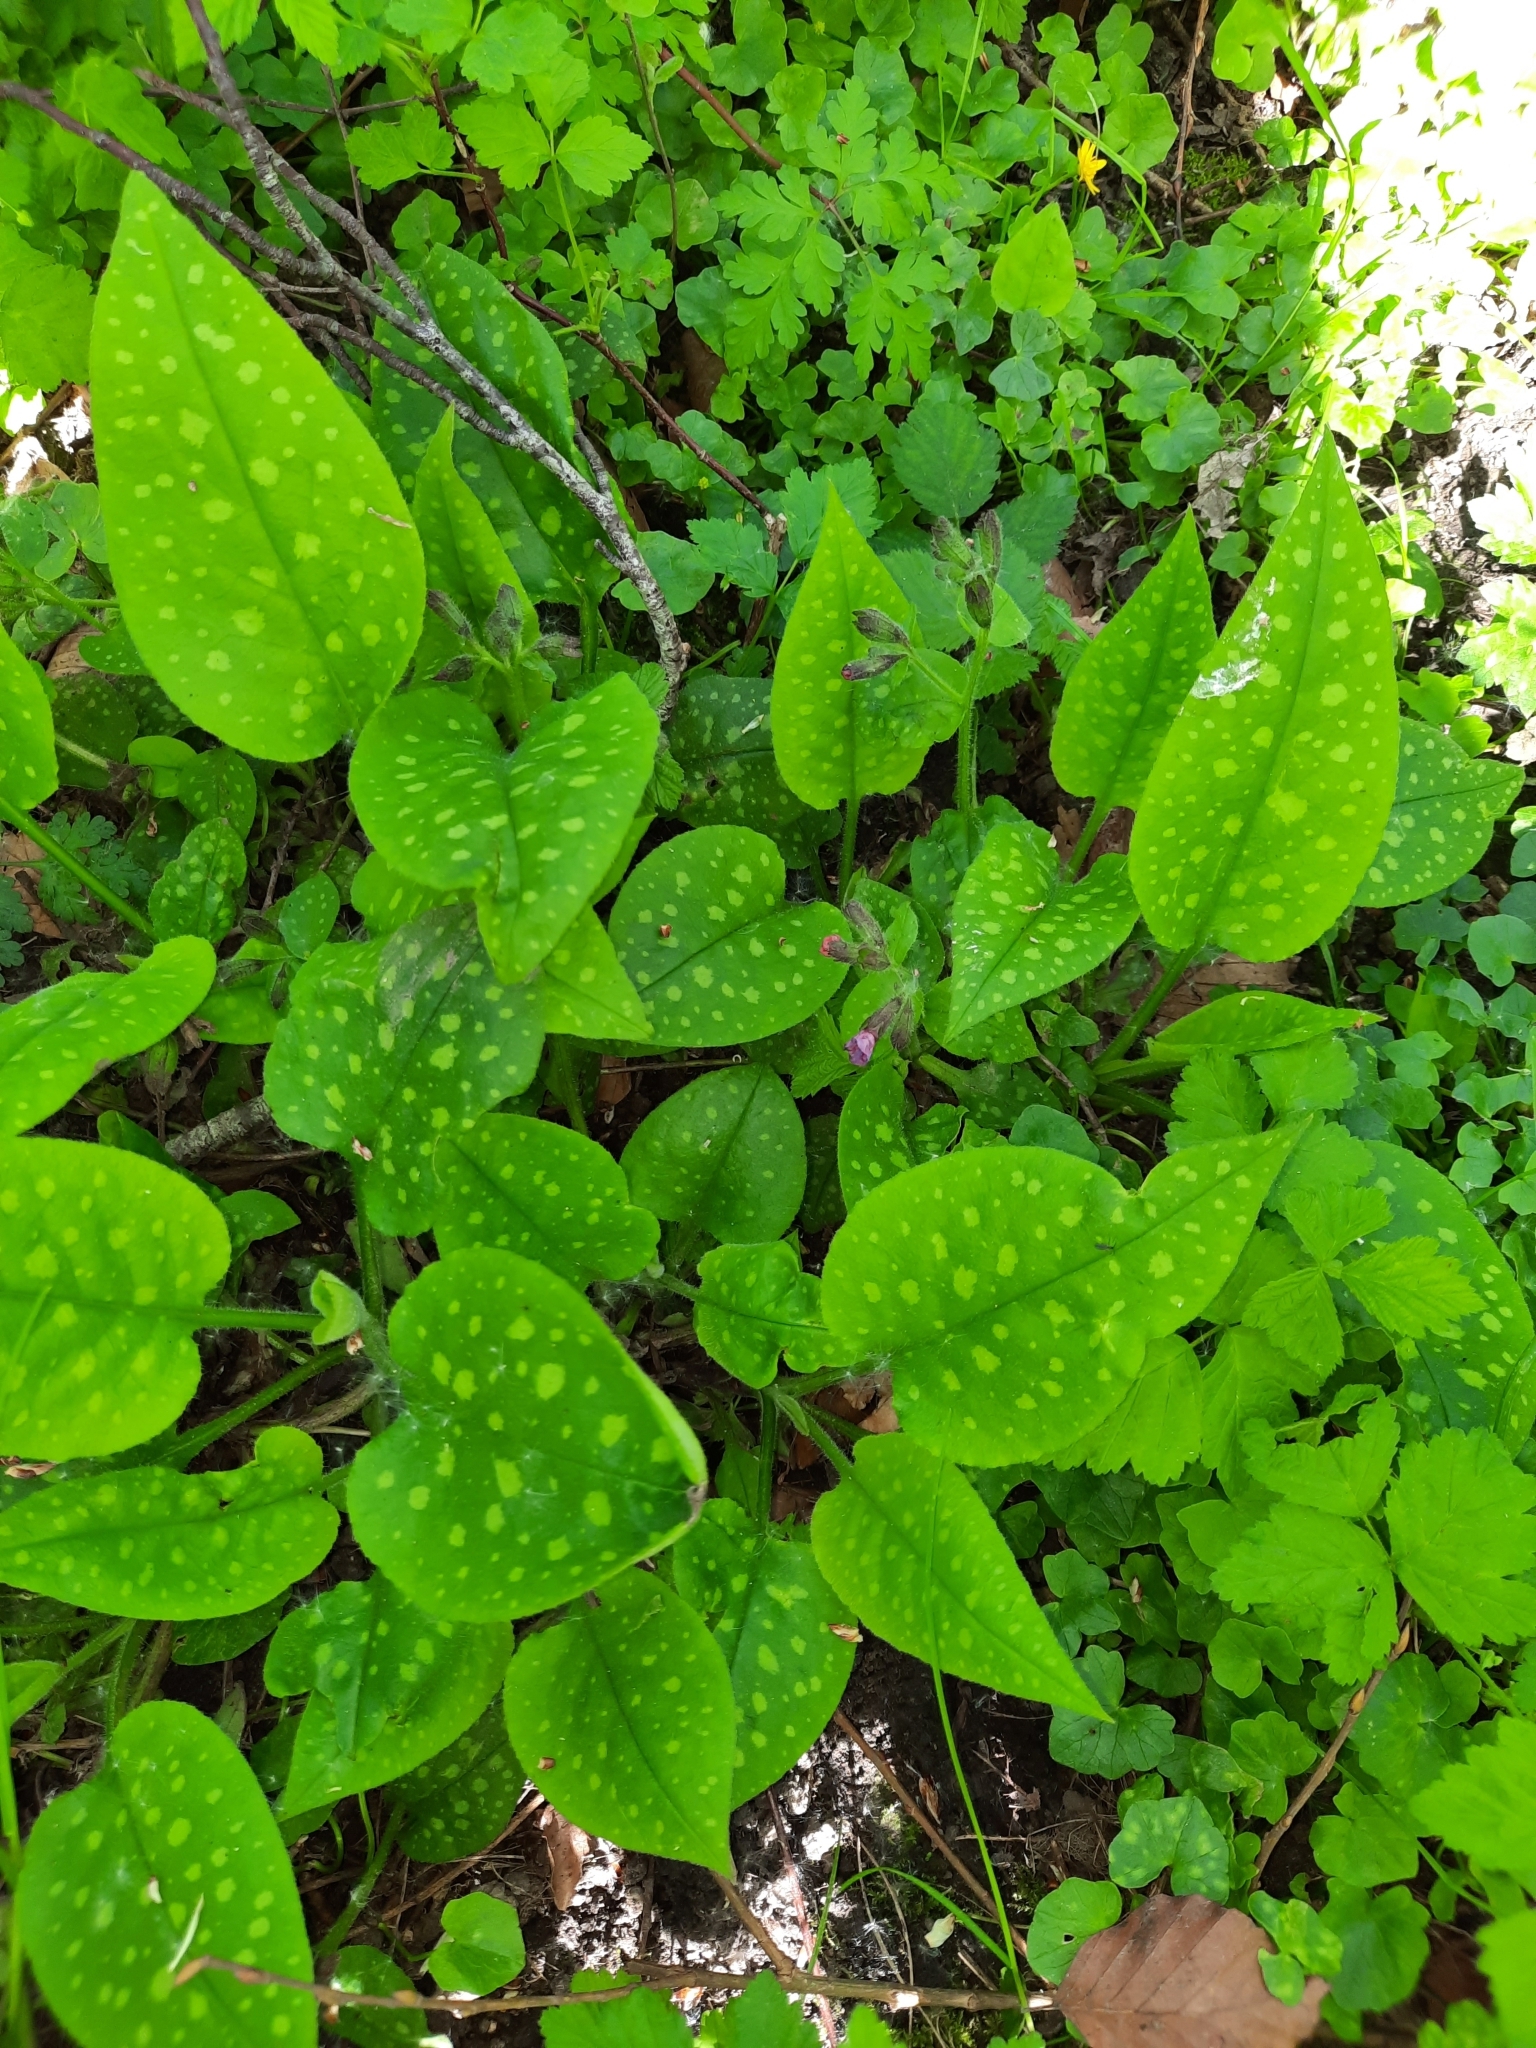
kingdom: Plantae
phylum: Tracheophyta
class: Magnoliopsida
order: Boraginales
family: Boraginaceae
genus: Pulmonaria
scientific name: Pulmonaria officinalis
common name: Lungwort
